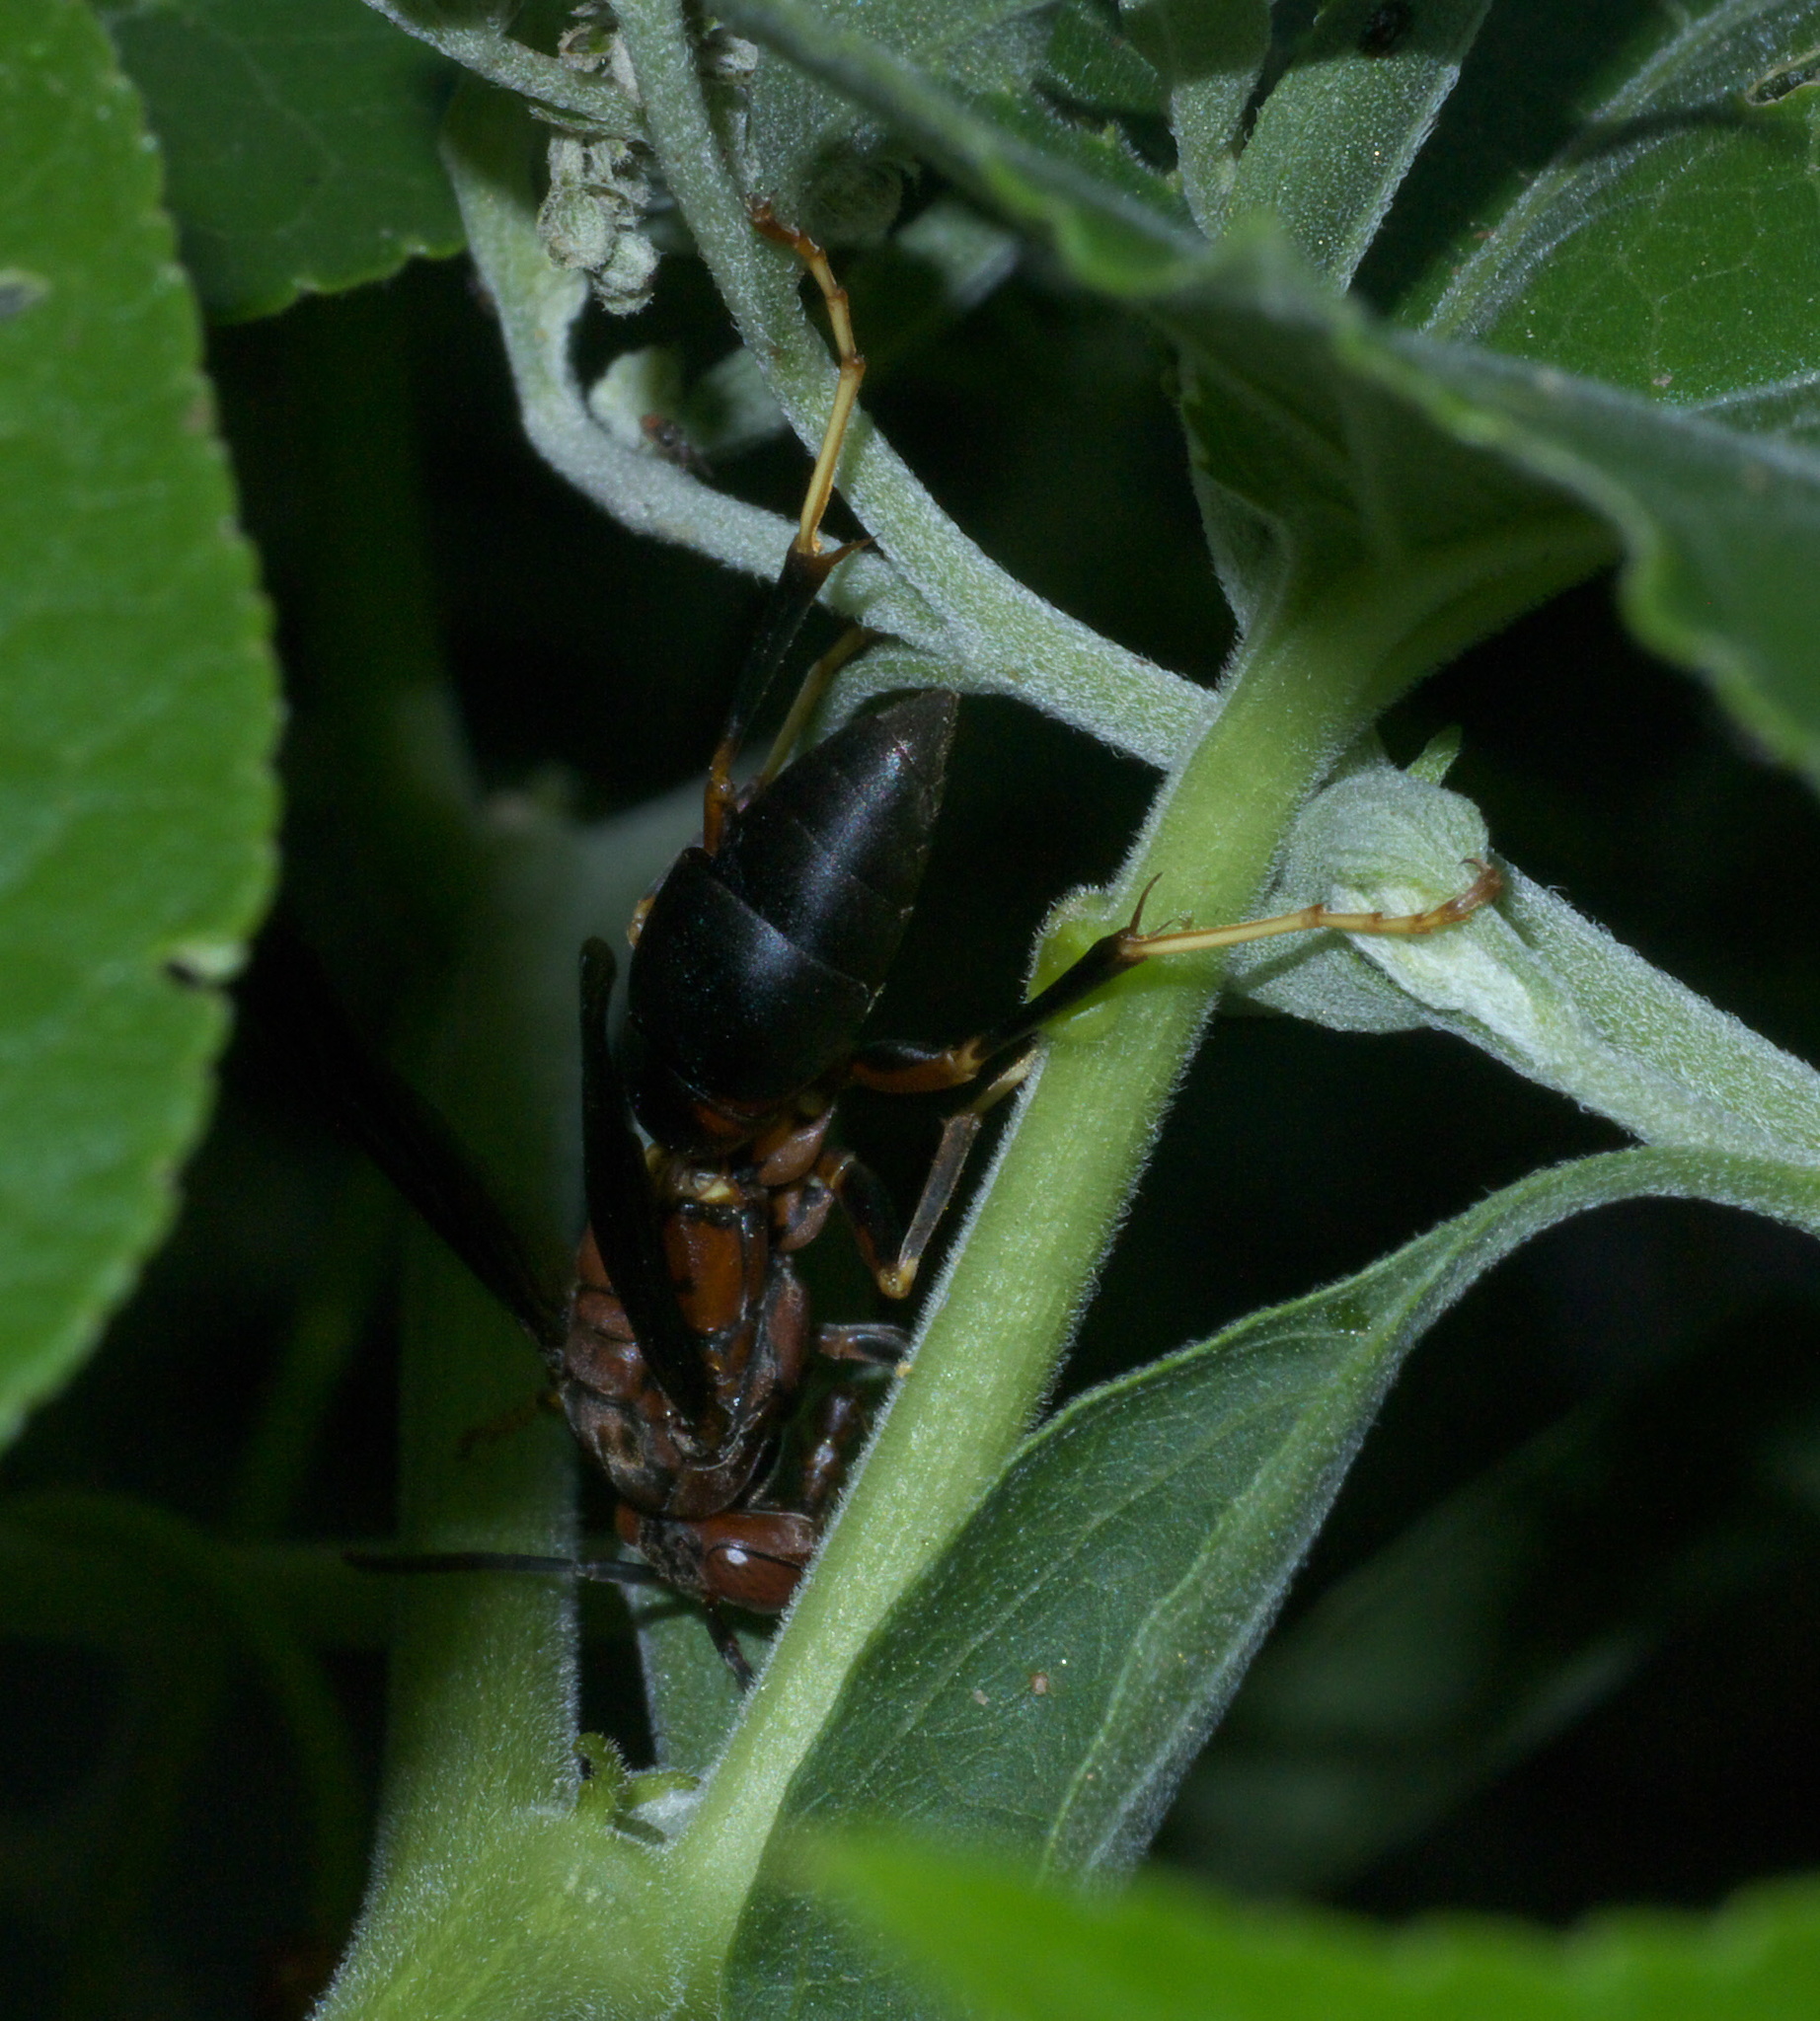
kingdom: Animalia
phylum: Arthropoda
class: Insecta
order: Hymenoptera
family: Eumenidae
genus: Polistes
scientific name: Polistes metricus
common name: Metric paper wasp
